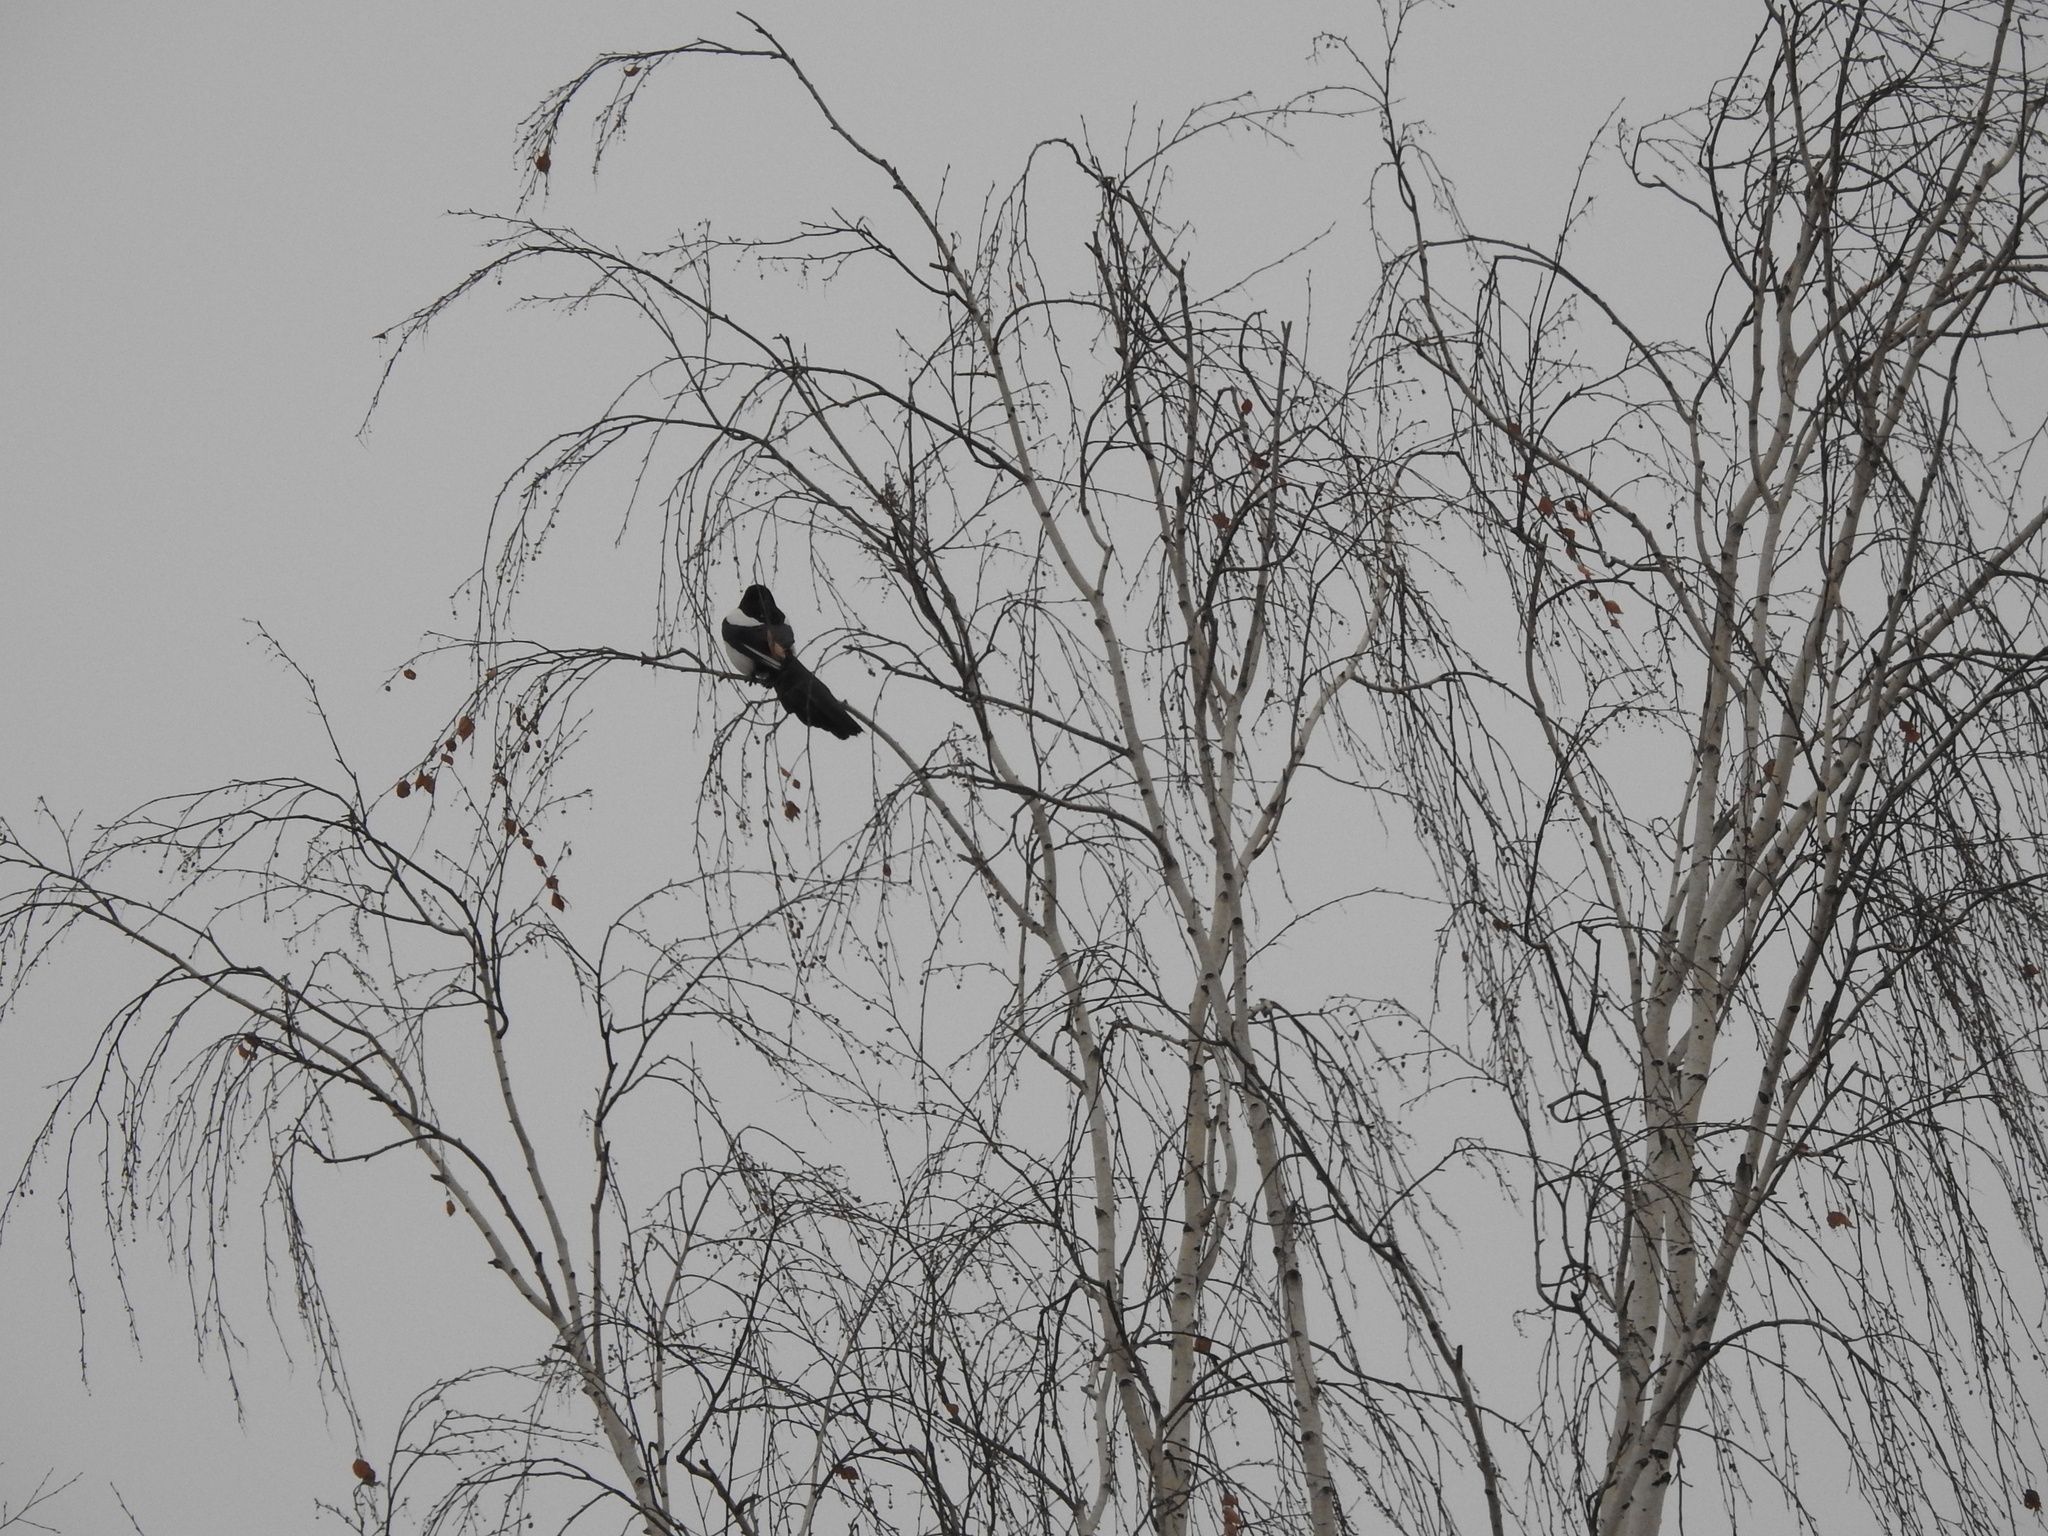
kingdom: Animalia
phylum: Chordata
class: Aves
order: Passeriformes
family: Corvidae
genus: Pica
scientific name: Pica pica
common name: Eurasian magpie
